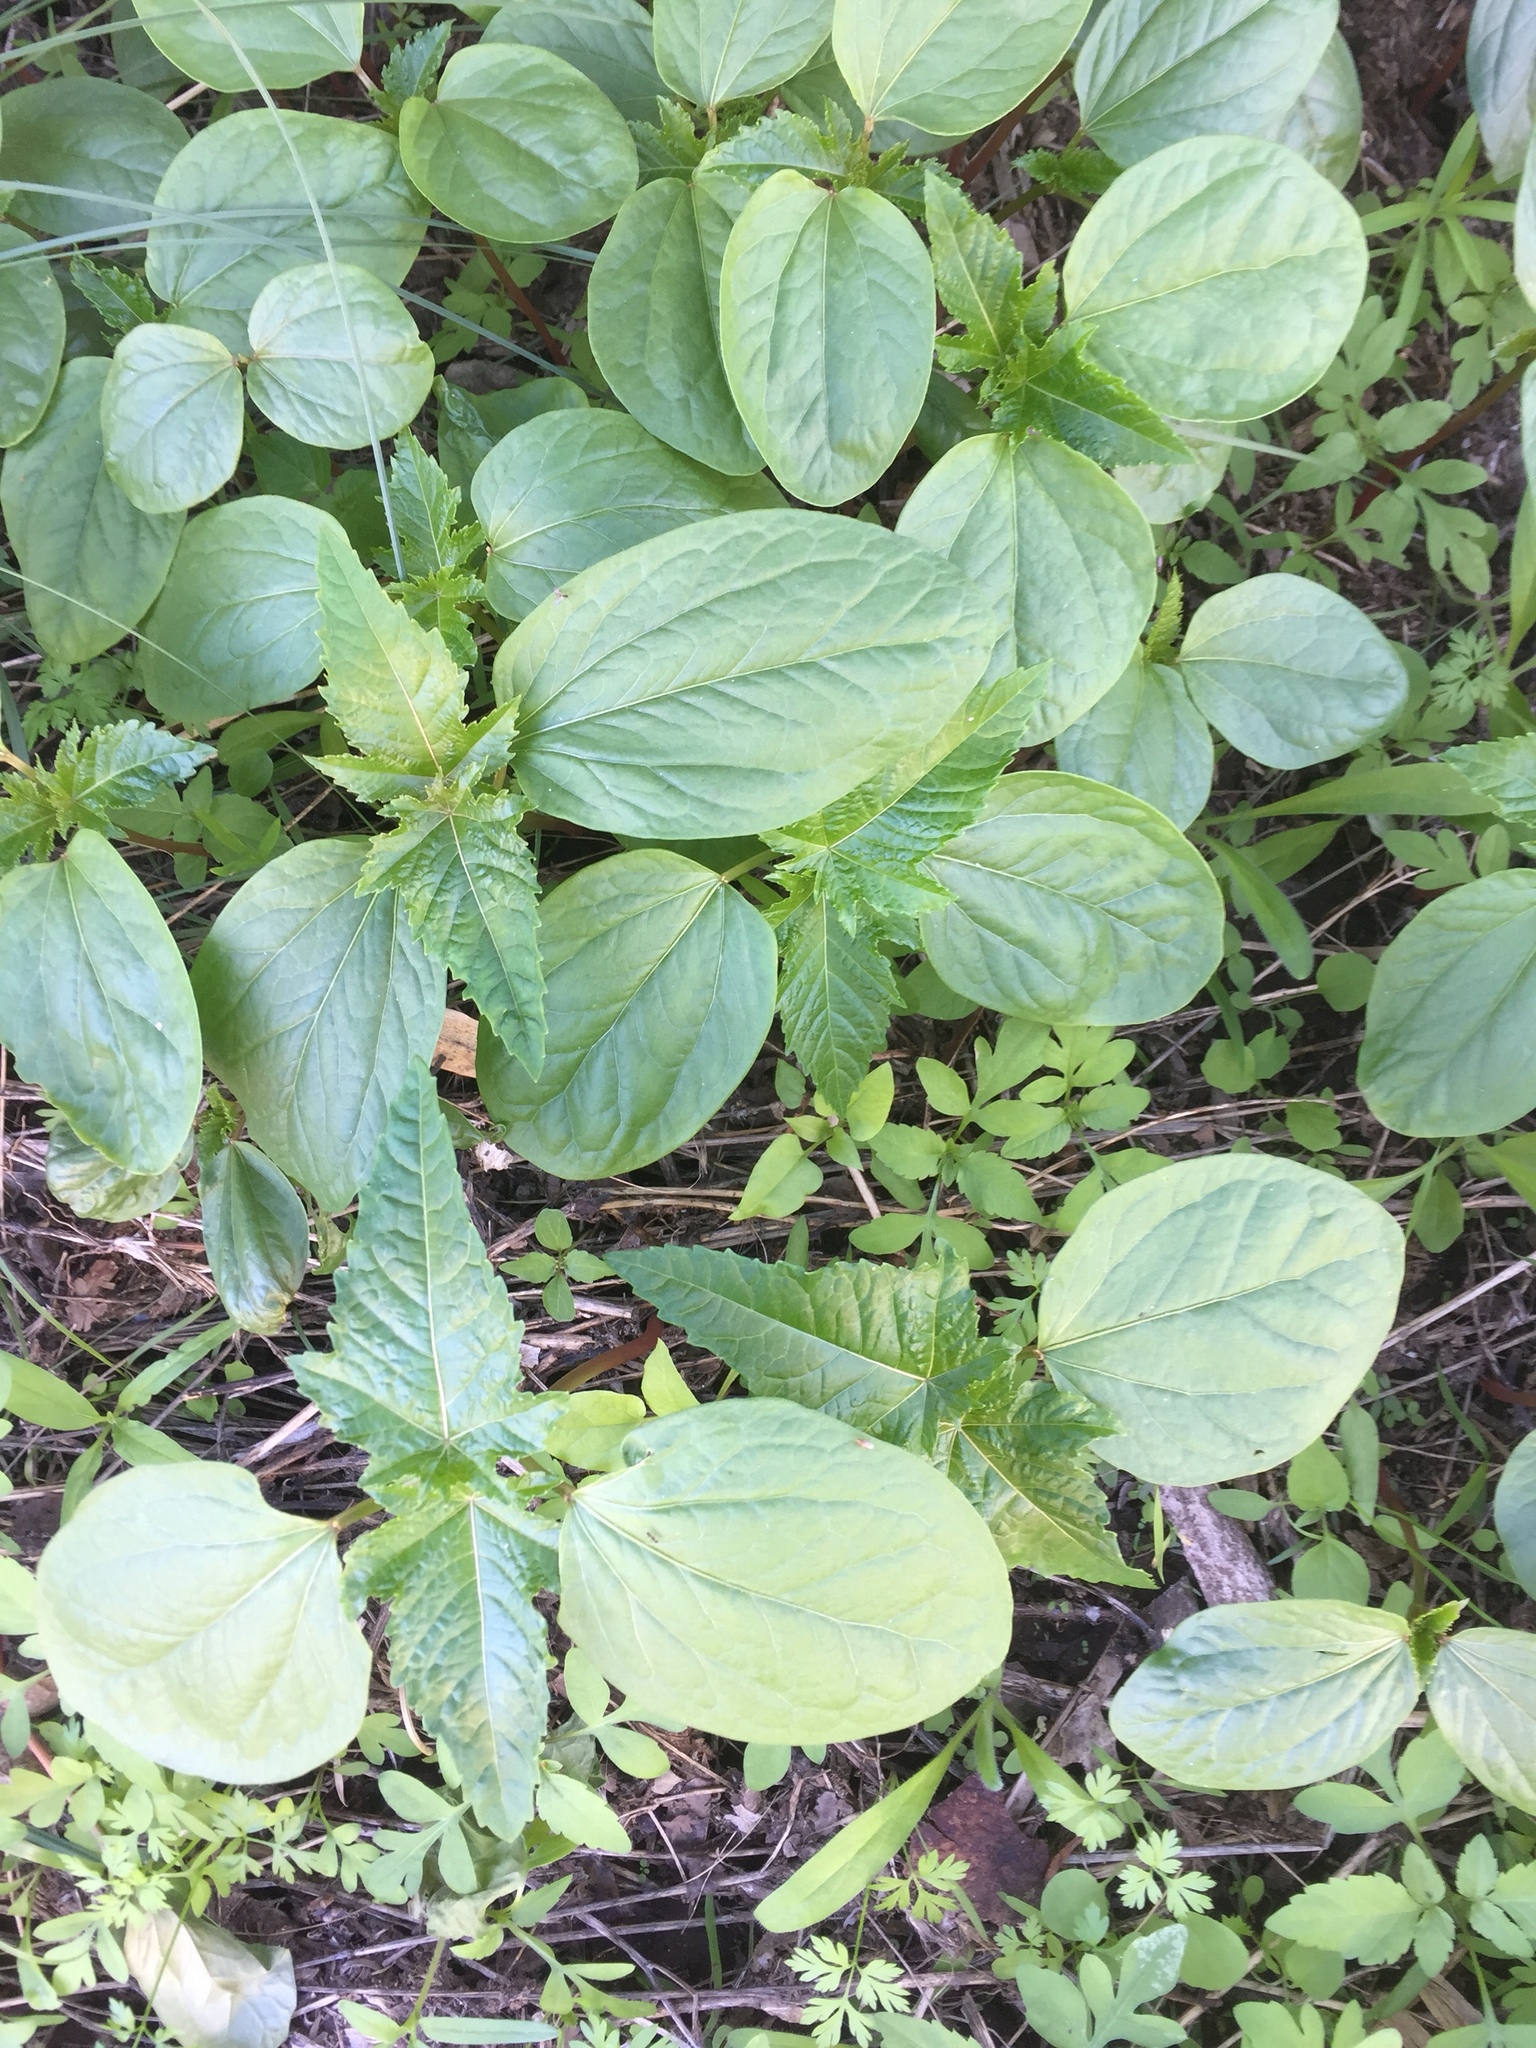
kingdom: Plantae
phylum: Tracheophyta
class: Magnoliopsida
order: Malpighiales
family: Euphorbiaceae
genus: Ricinus
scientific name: Ricinus communis
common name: Castor-oil-plant
